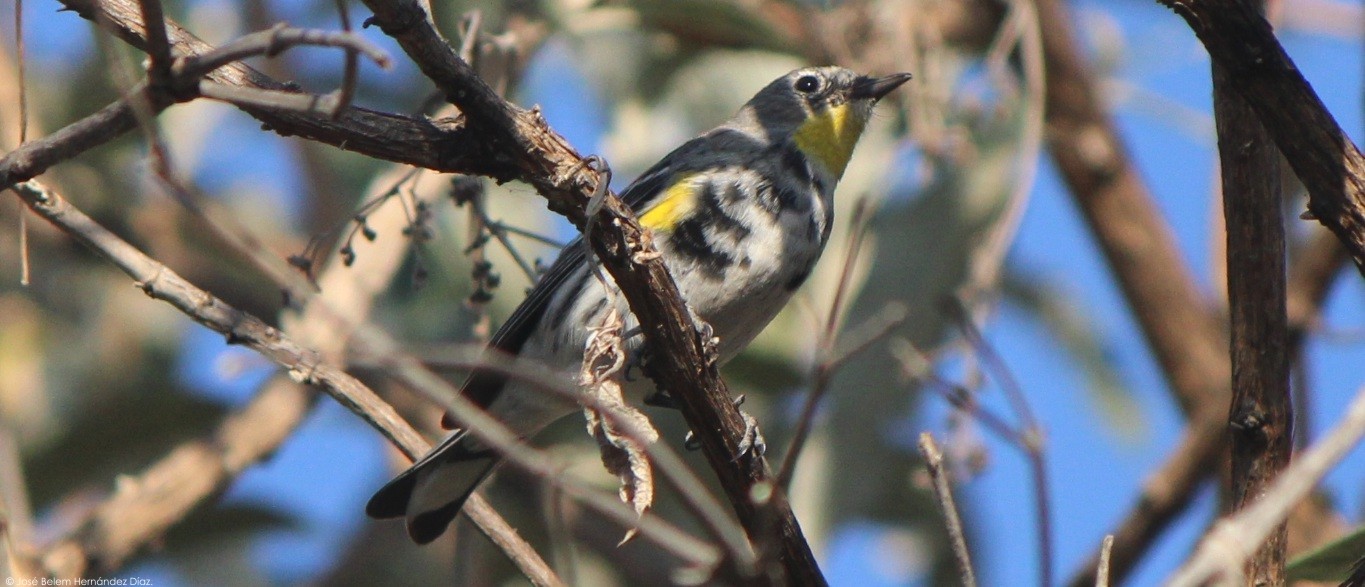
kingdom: Animalia
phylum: Chordata
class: Aves
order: Passeriformes
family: Parulidae
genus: Setophaga
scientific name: Setophaga auduboni
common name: Audubon's warbler
